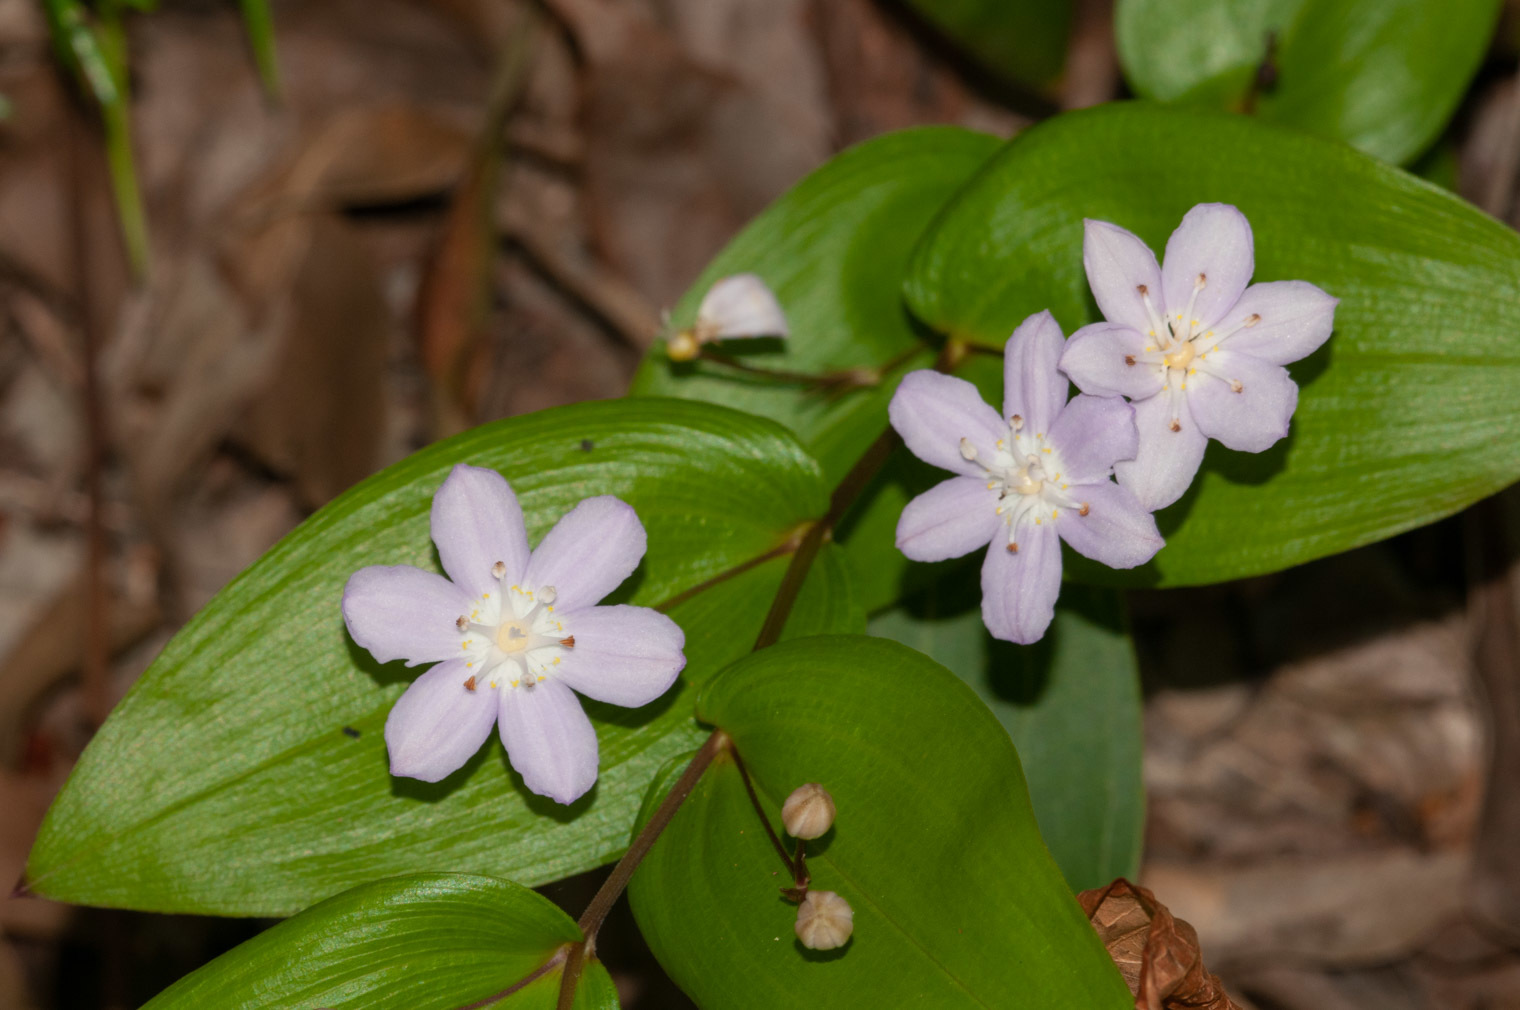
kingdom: Plantae
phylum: Tracheophyta
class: Liliopsida
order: Liliales
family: Colchicaceae
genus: Tripladenia
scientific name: Tripladenia cunninghamii
